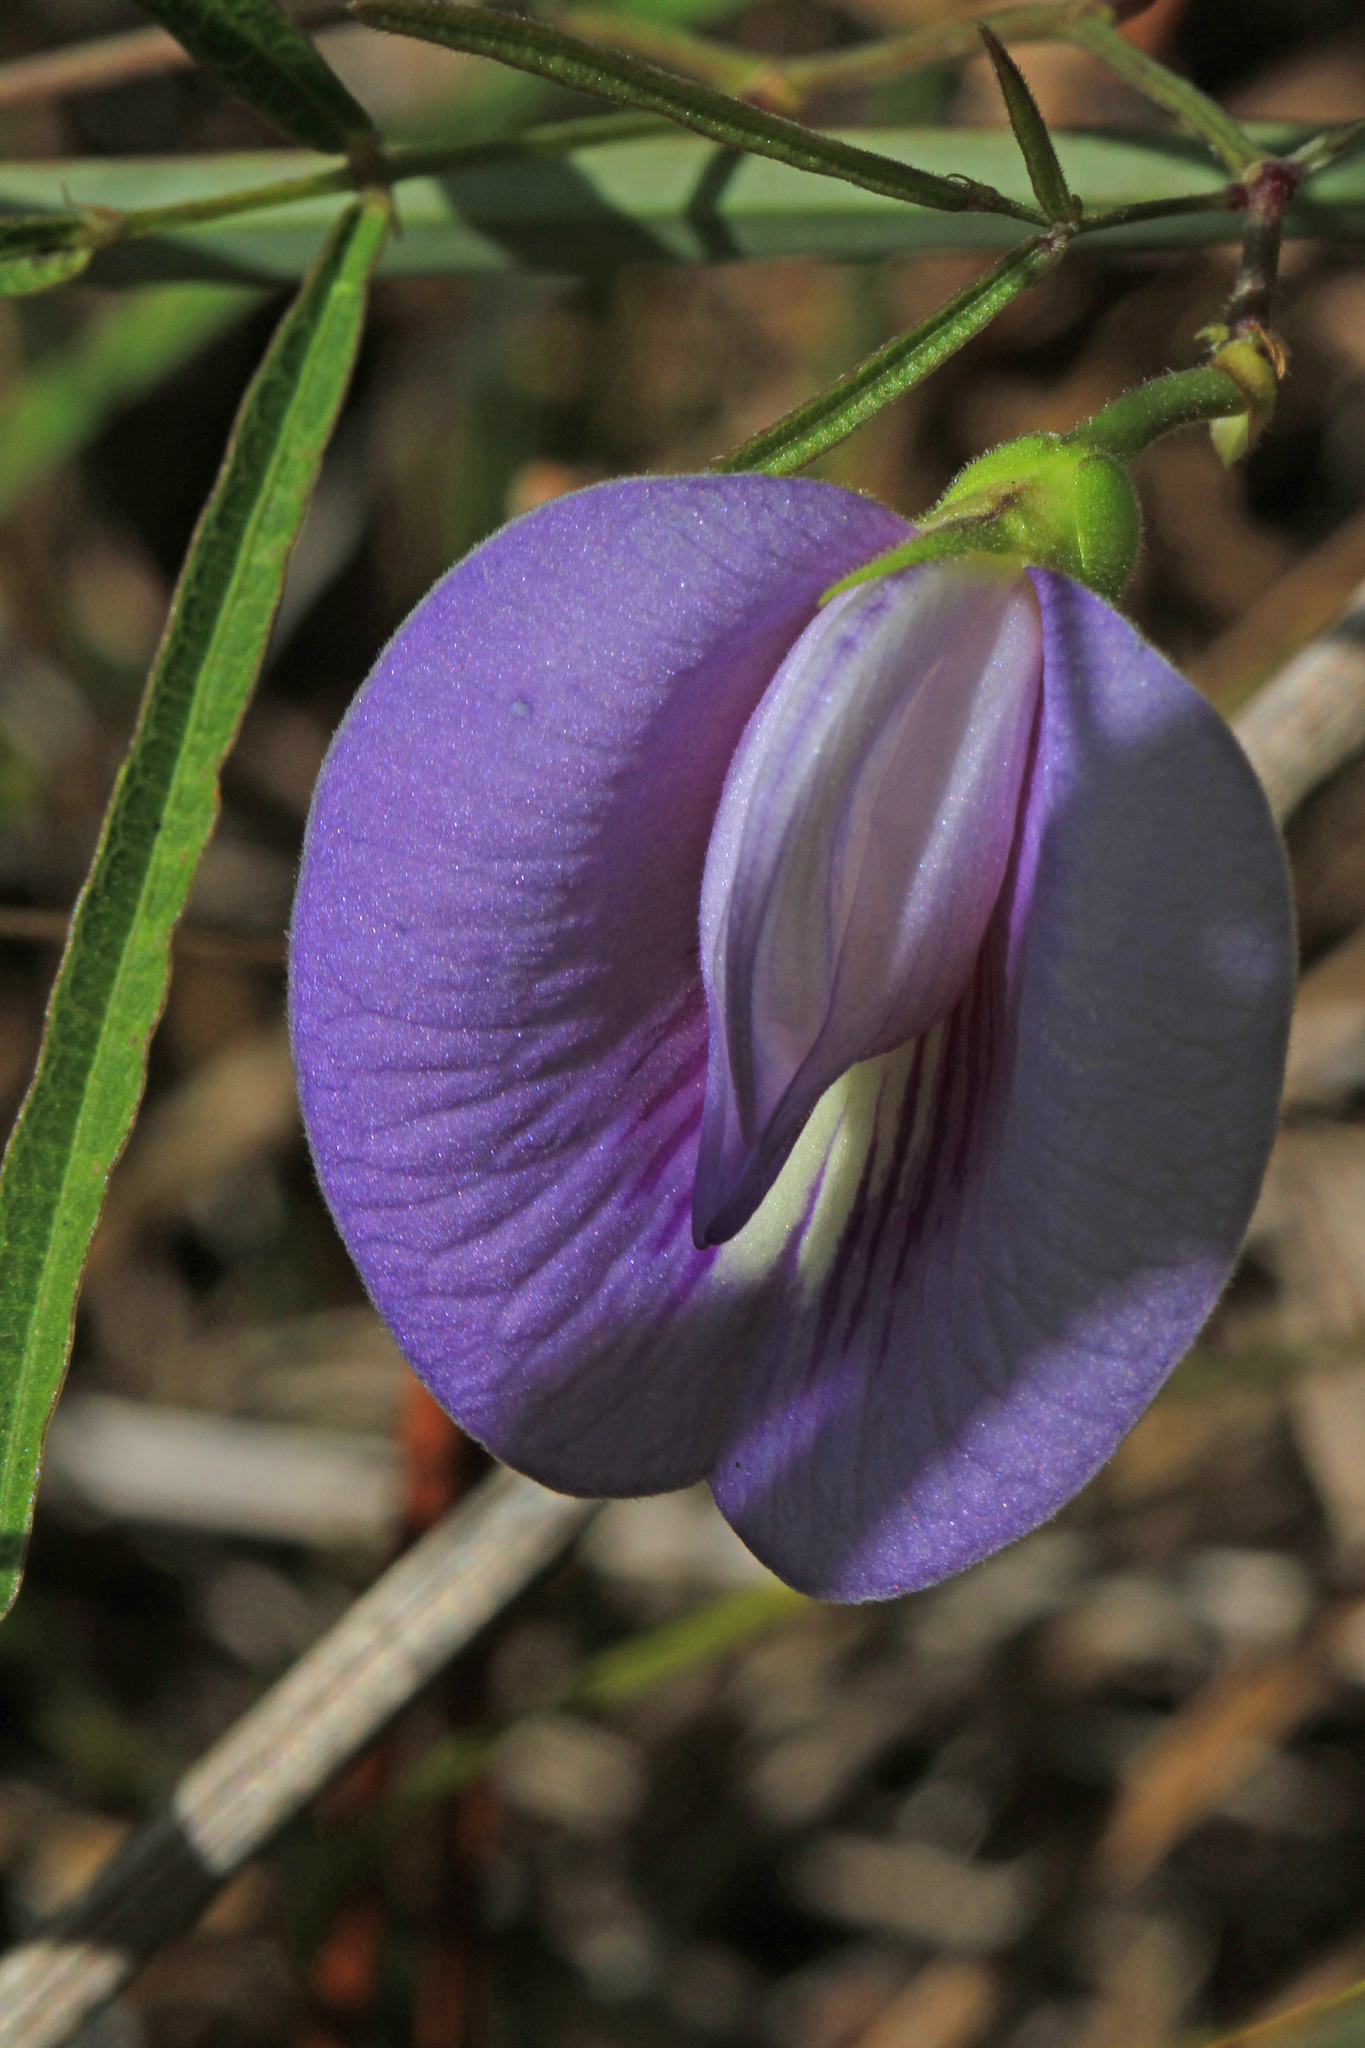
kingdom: Plantae
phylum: Tracheophyta
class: Magnoliopsida
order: Fabales
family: Fabaceae
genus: Centrosema
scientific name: Centrosema virginianum
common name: Butterfly-pea
